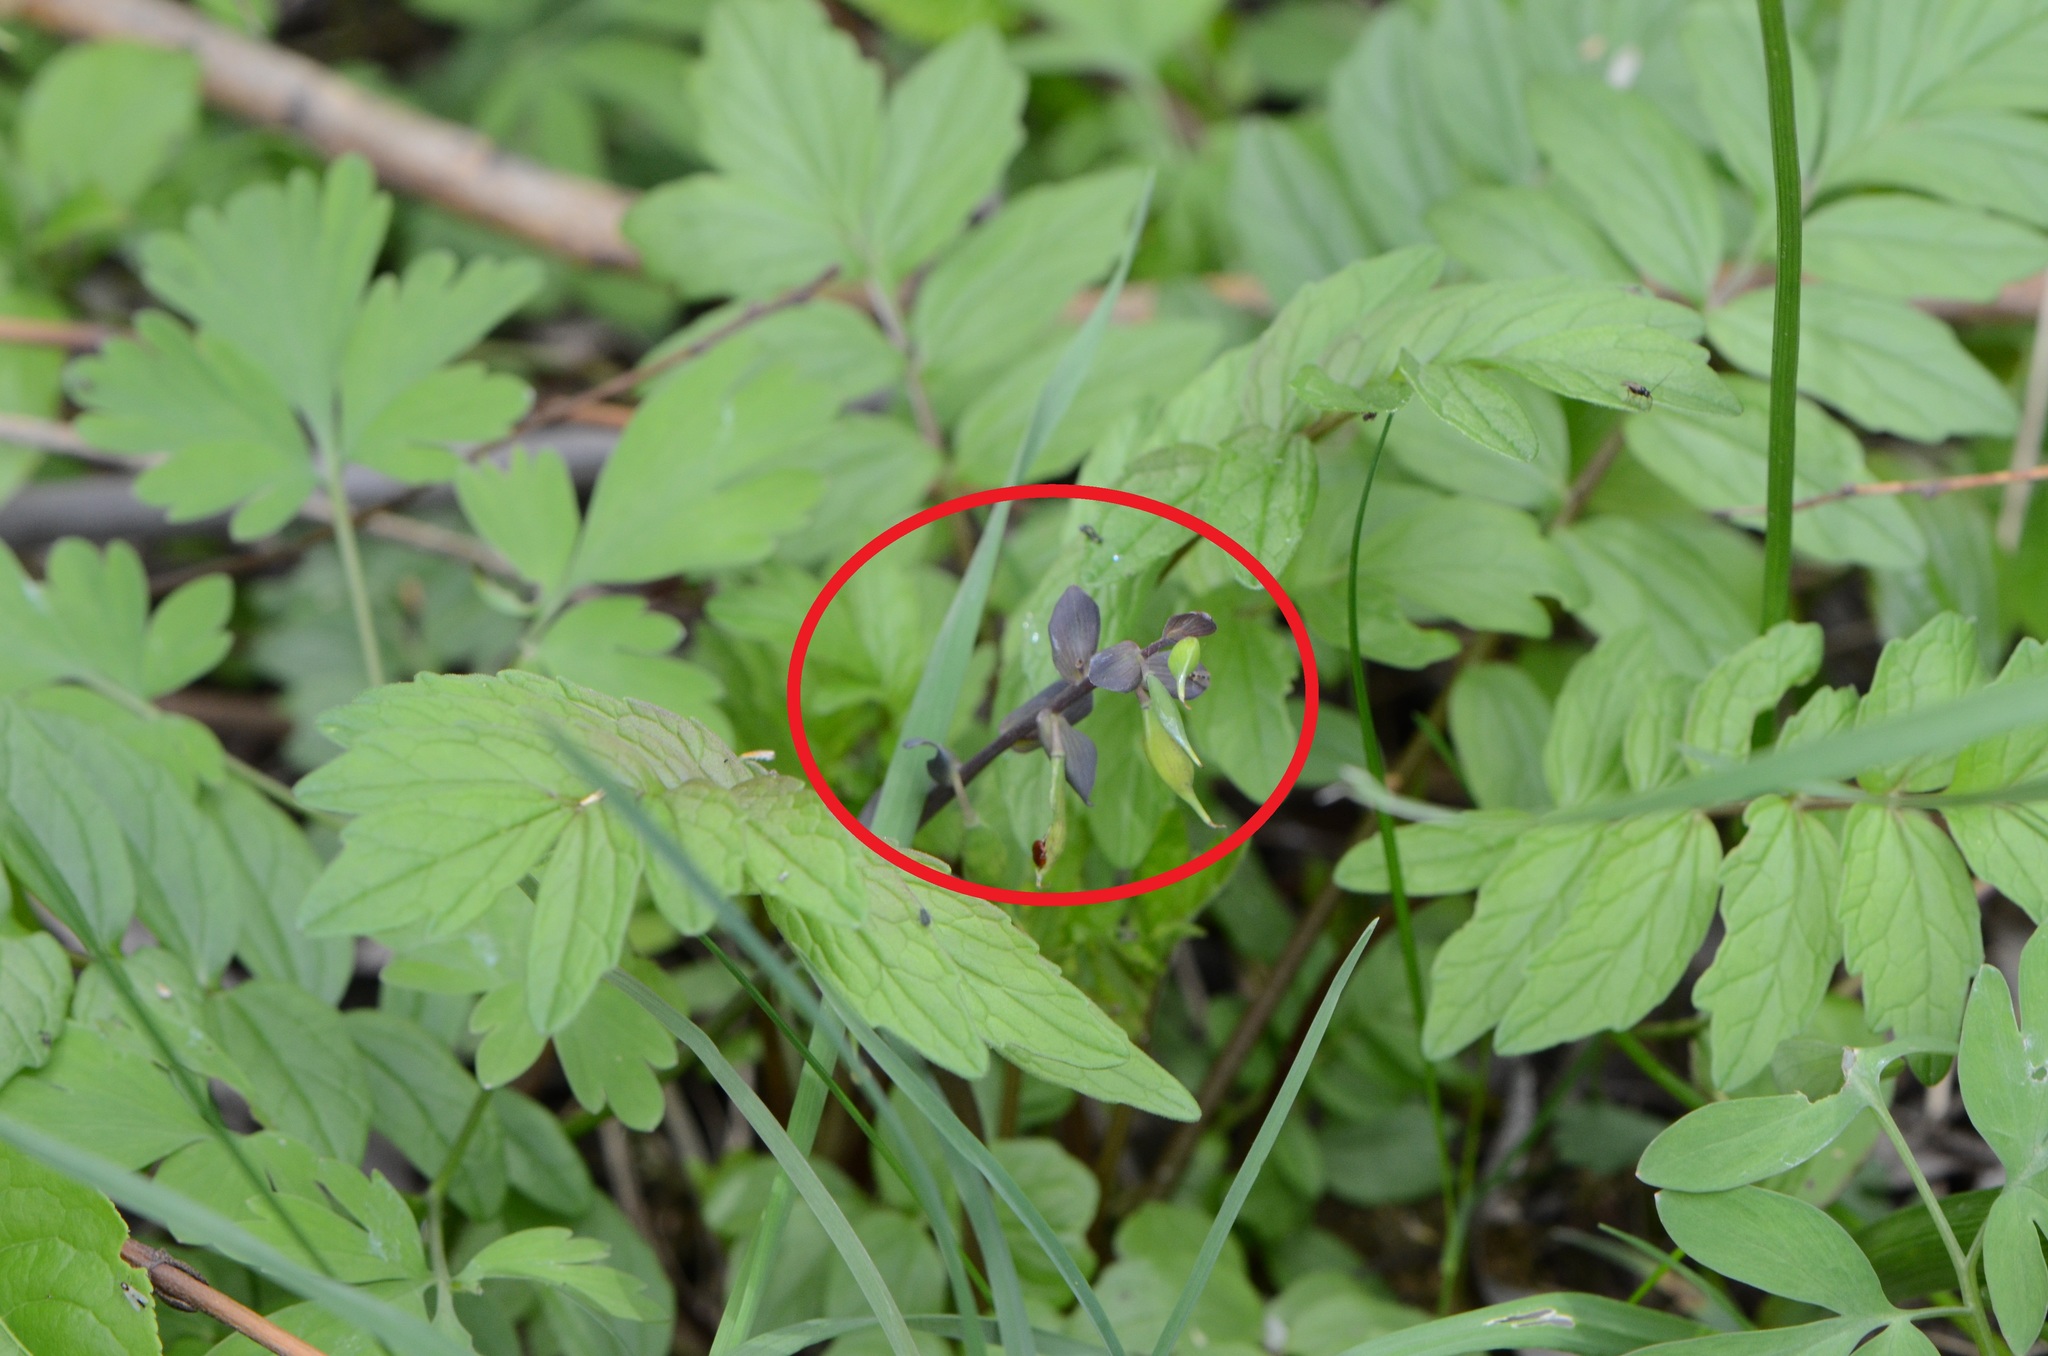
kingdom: Plantae
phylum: Tracheophyta
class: Magnoliopsida
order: Ranunculales
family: Papaveraceae
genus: Corydalis
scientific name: Corydalis cava
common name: Hollowroot
